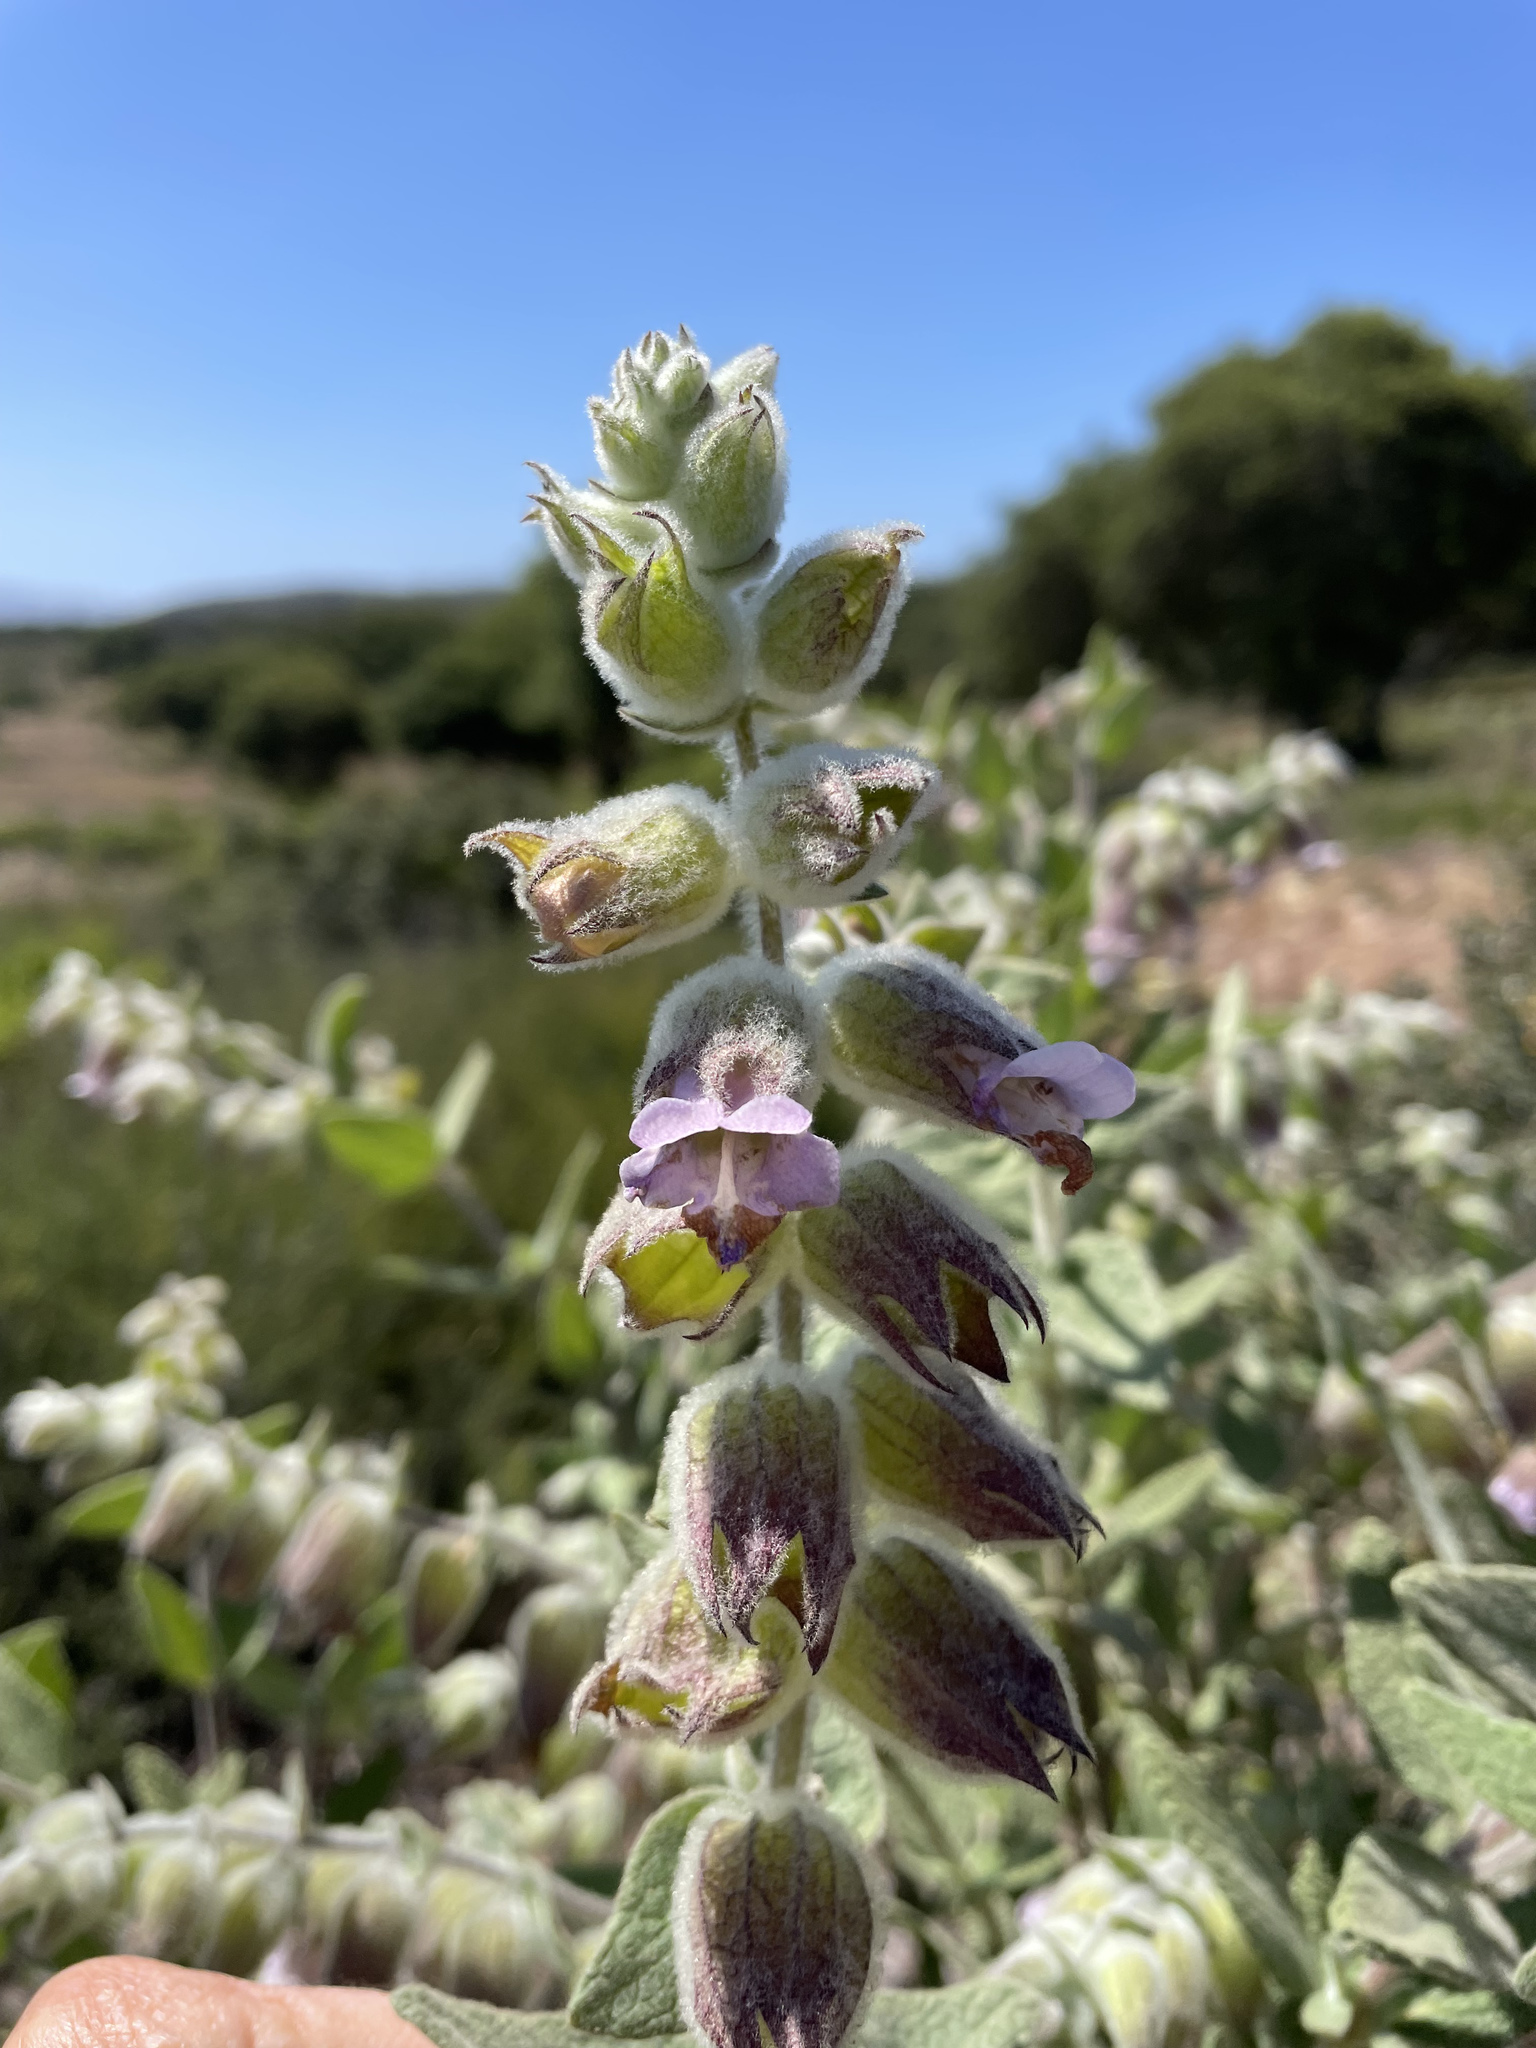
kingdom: Plantae
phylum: Tracheophyta
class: Magnoliopsida
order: Lamiales
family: Lamiaceae
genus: Lepechinia
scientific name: Lepechinia calycina
